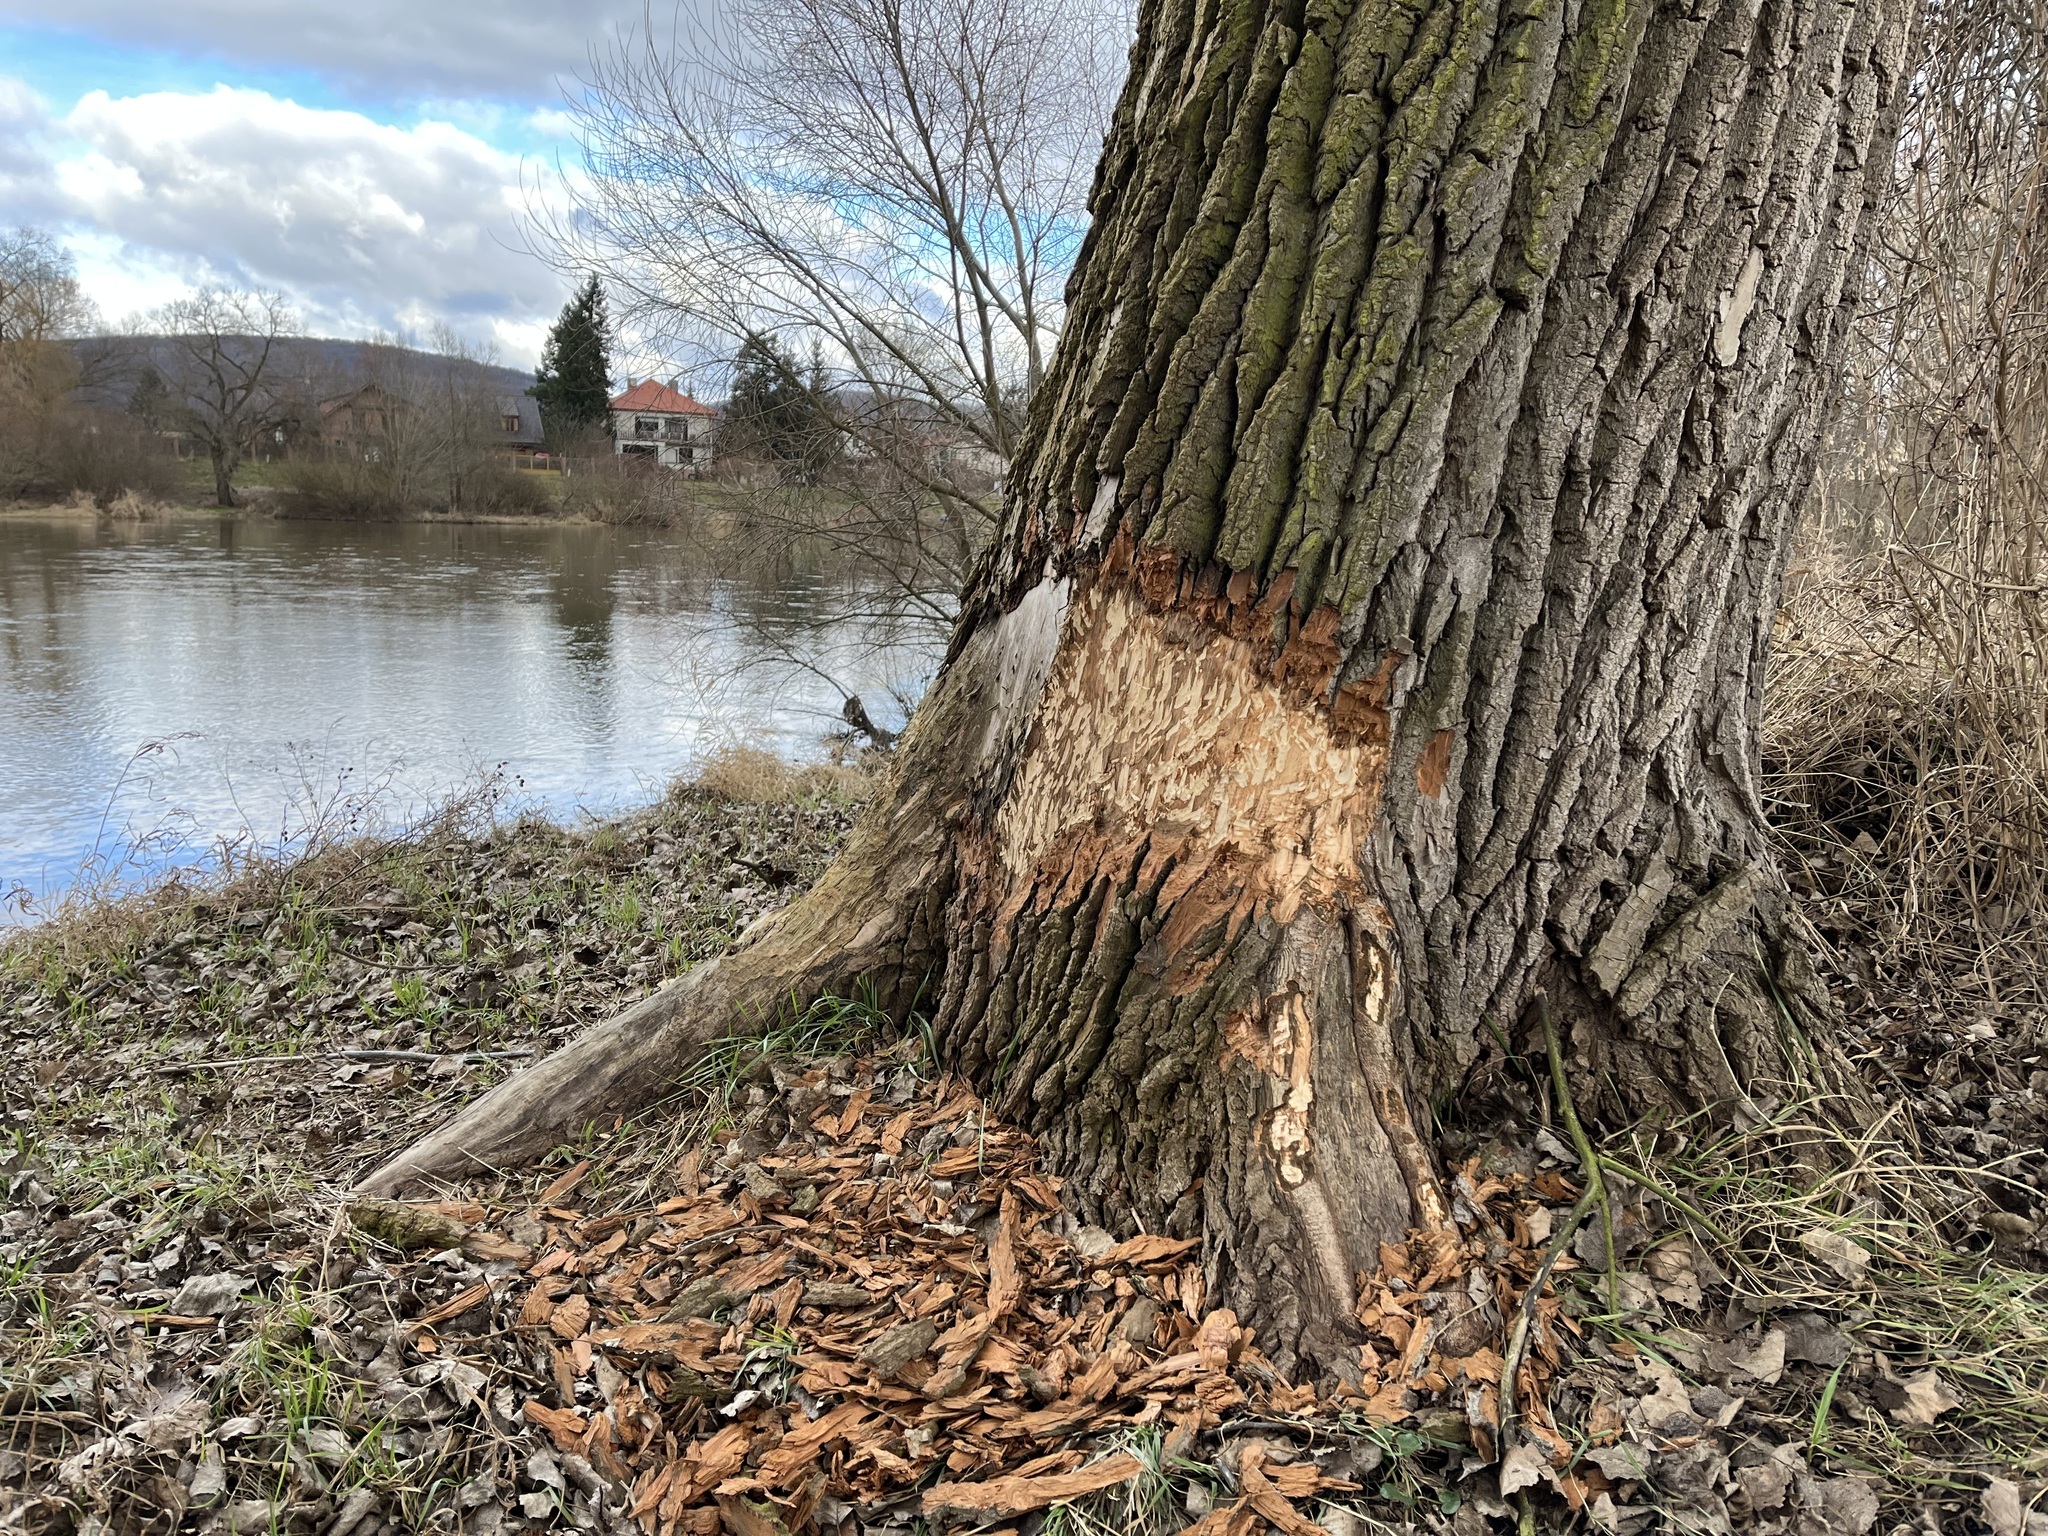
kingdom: Animalia
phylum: Chordata
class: Mammalia
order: Rodentia
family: Castoridae
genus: Castor
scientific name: Castor fiber
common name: Eurasian beaver
